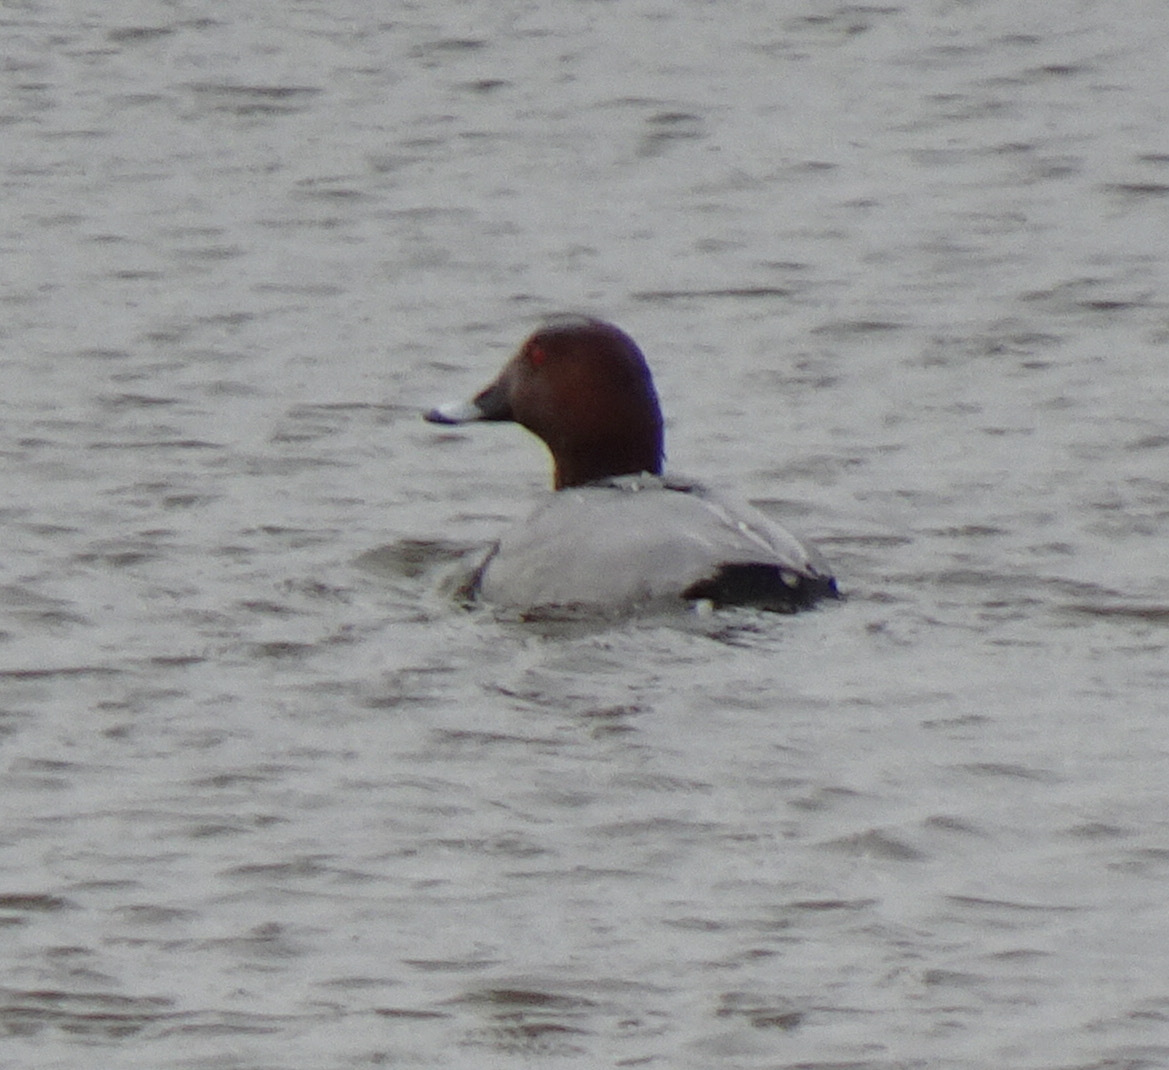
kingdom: Animalia
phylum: Chordata
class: Aves
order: Anseriformes
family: Anatidae
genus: Aythya
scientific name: Aythya ferina
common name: Common pochard
